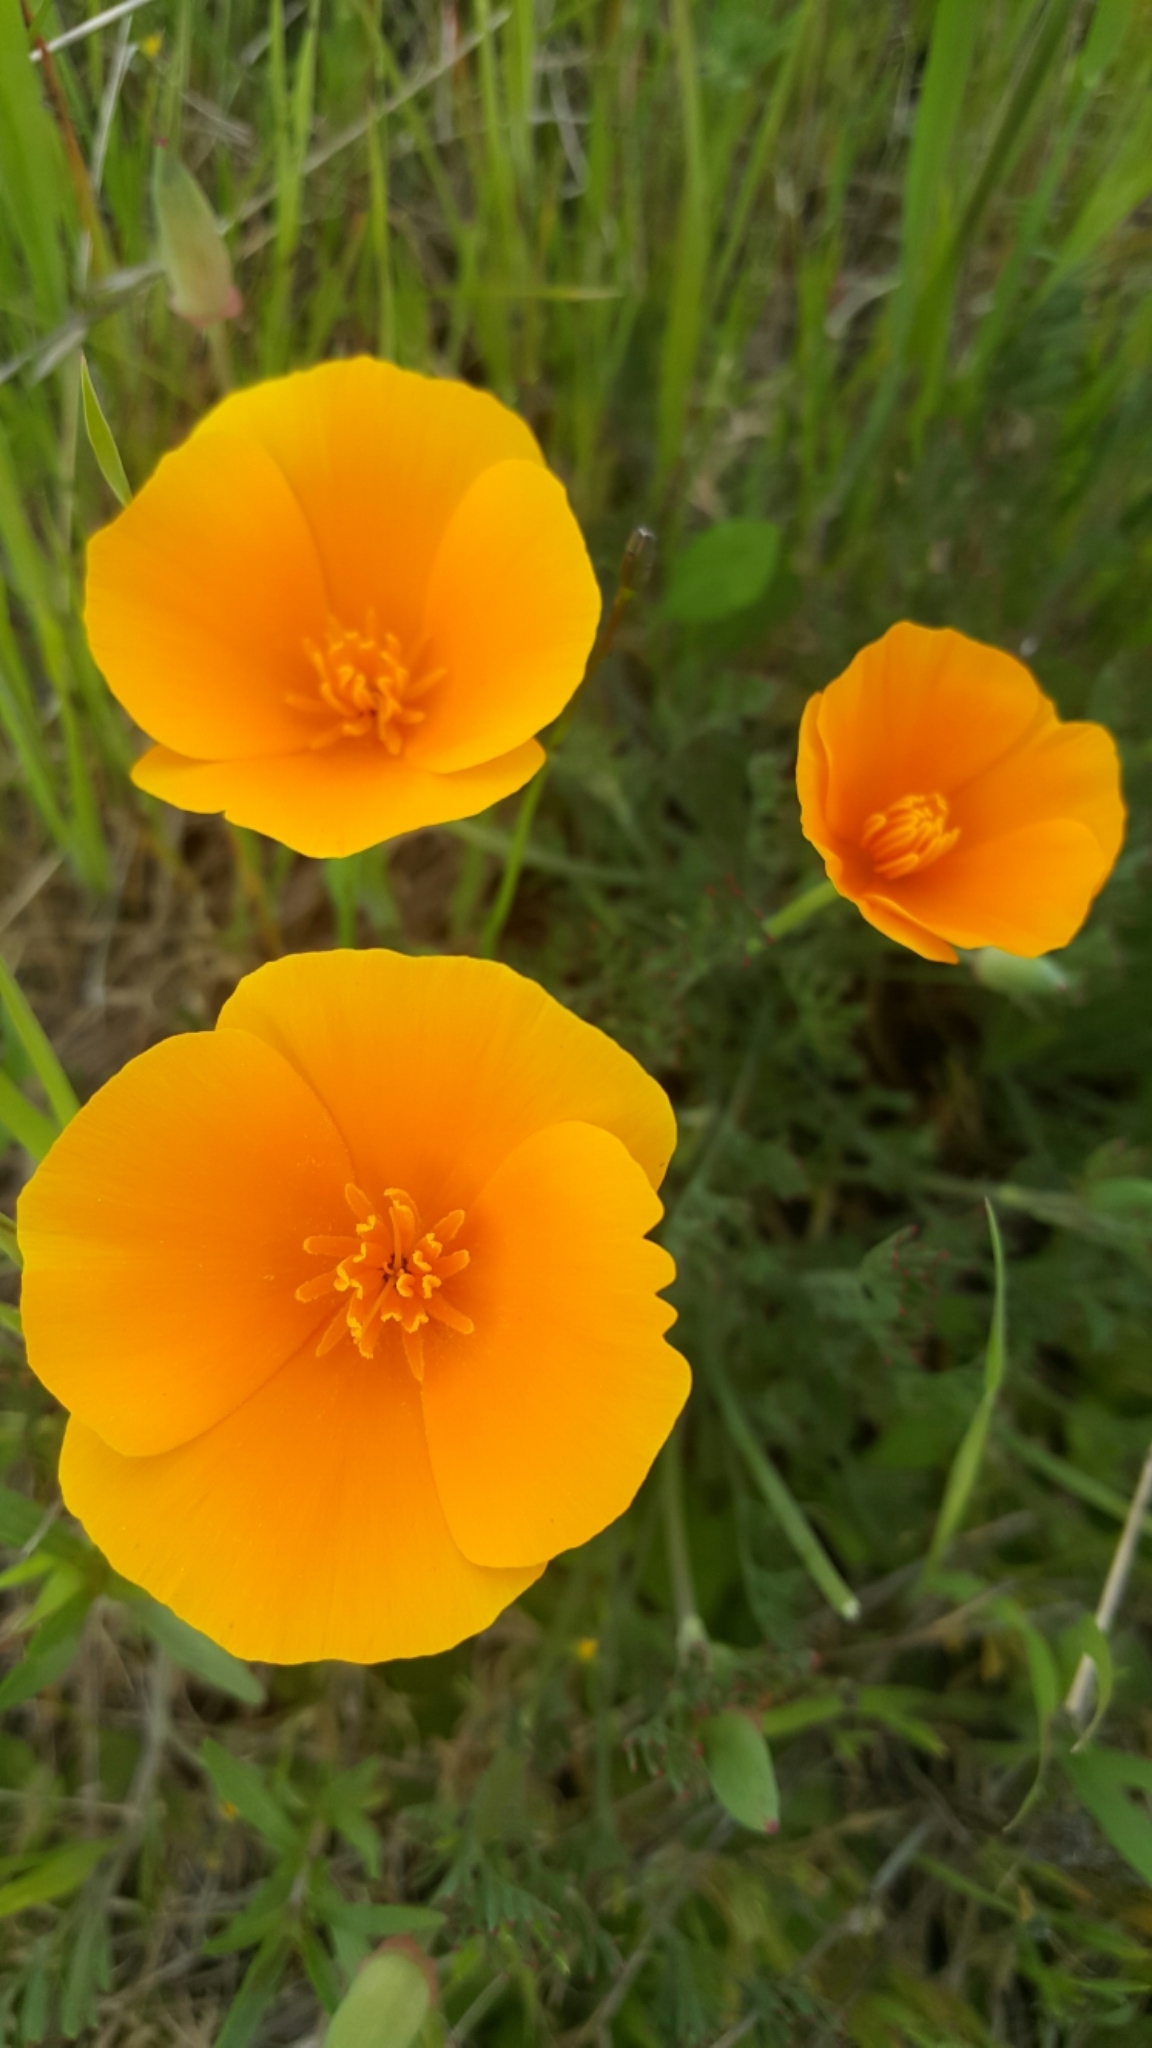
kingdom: Plantae
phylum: Tracheophyta
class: Magnoliopsida
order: Ranunculales
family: Papaveraceae
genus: Eschscholzia
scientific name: Eschscholzia californica
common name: California poppy
